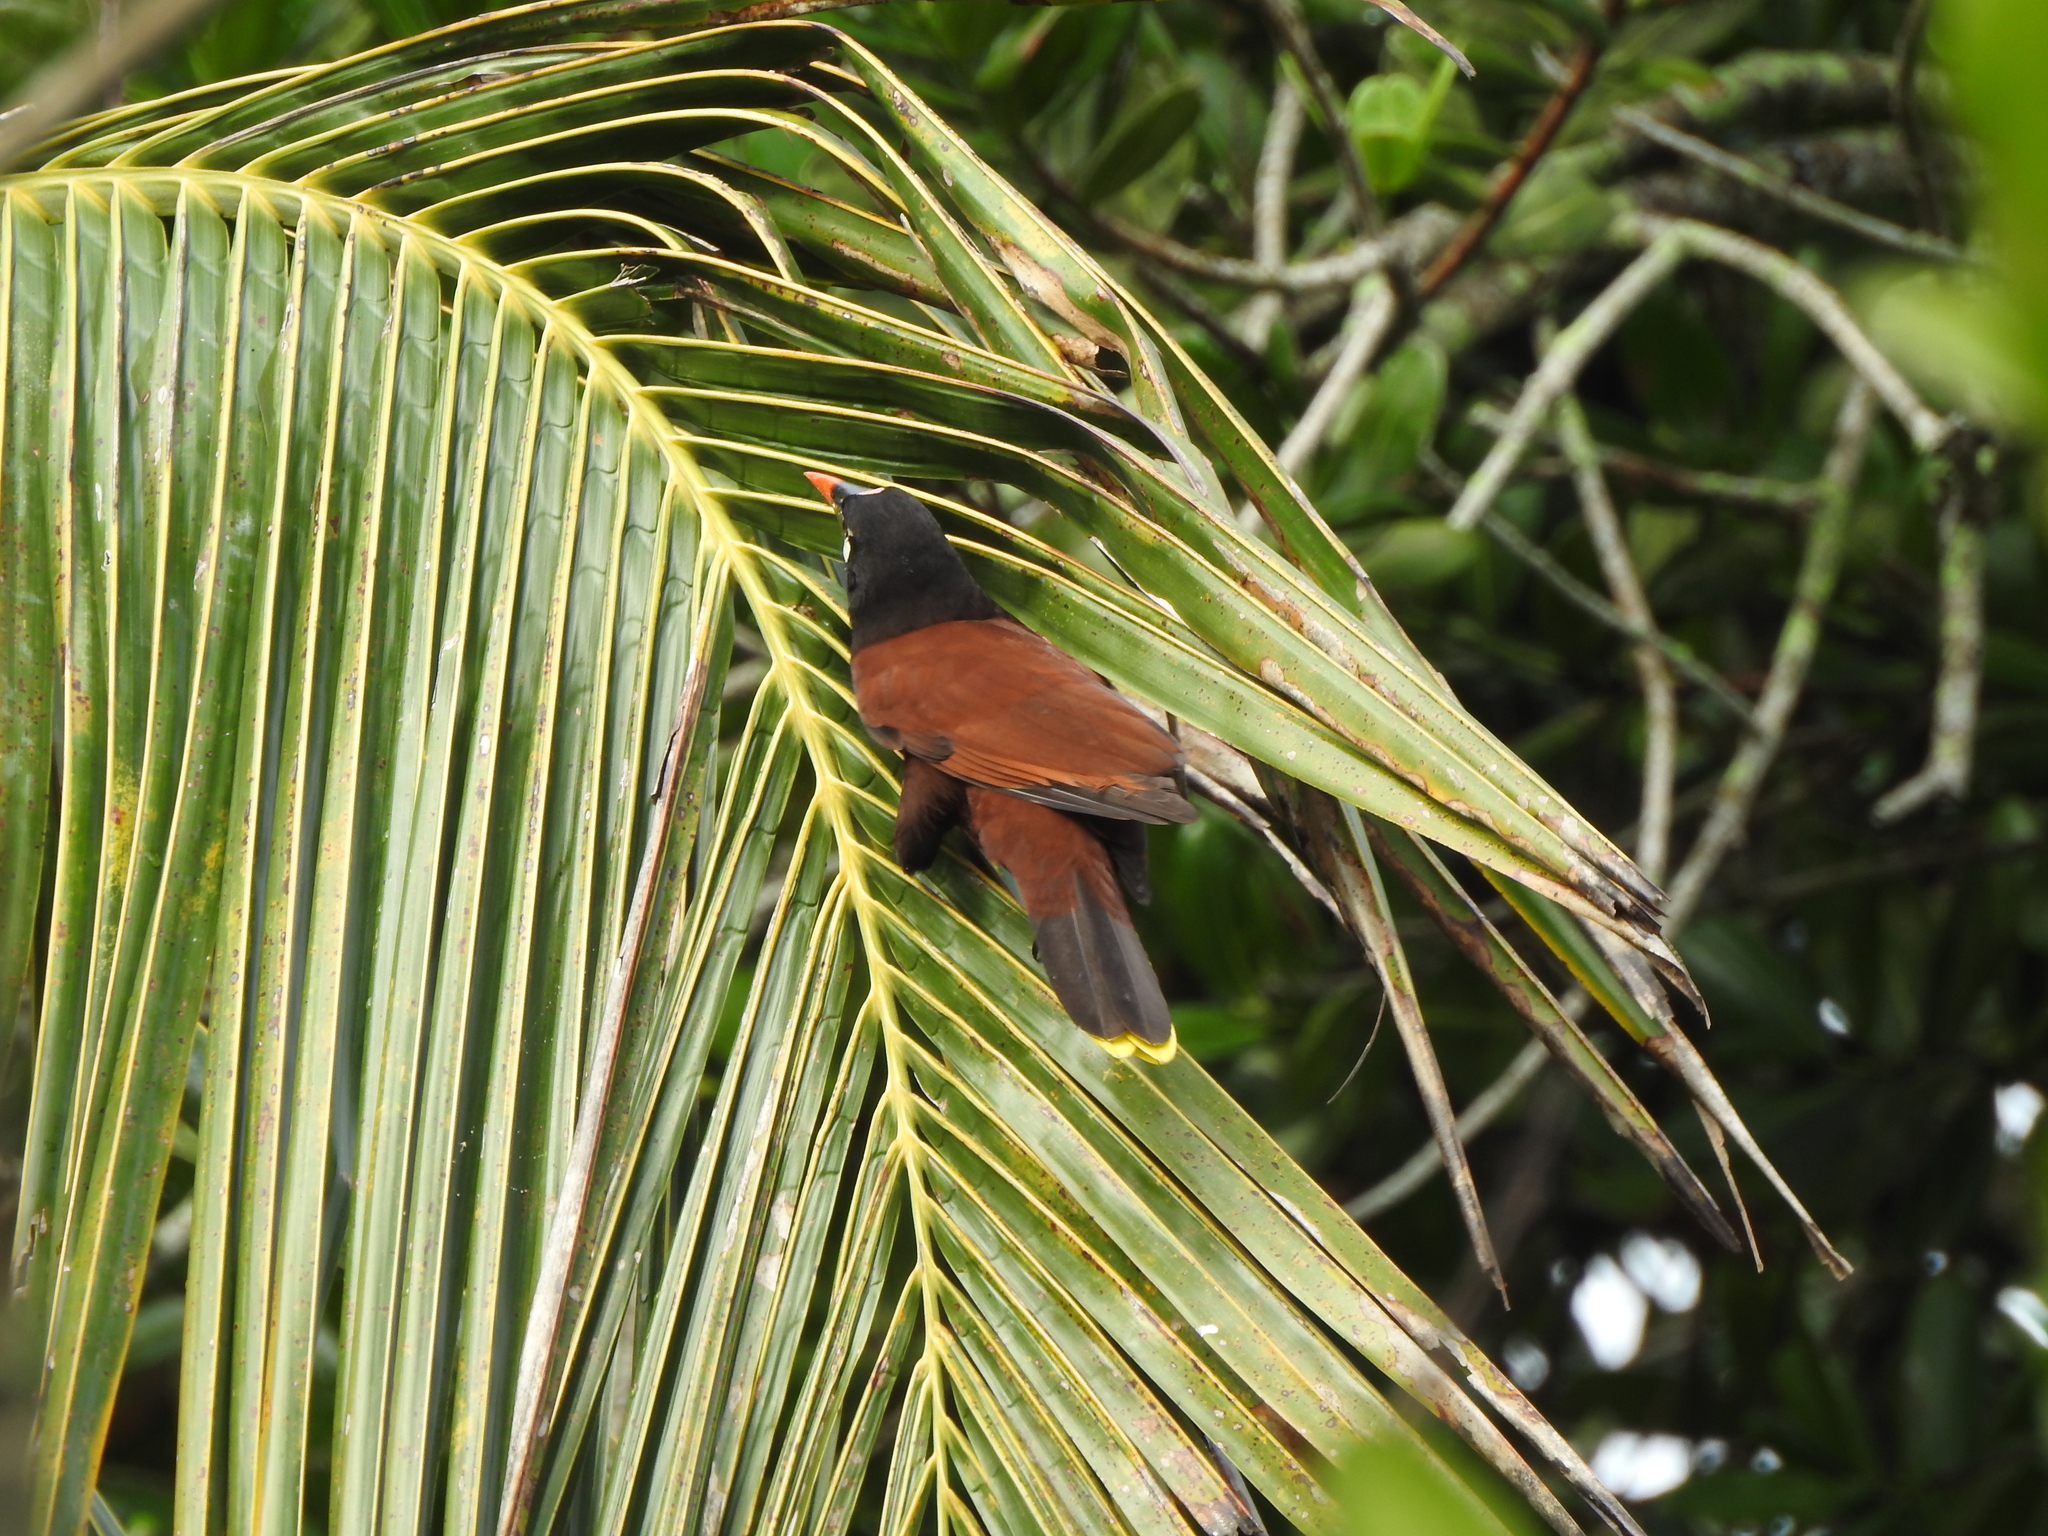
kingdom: Animalia
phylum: Chordata
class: Aves
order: Passeriformes
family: Icteridae
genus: Psarocolius
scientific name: Psarocolius montezuma
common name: Montezuma oropendola
